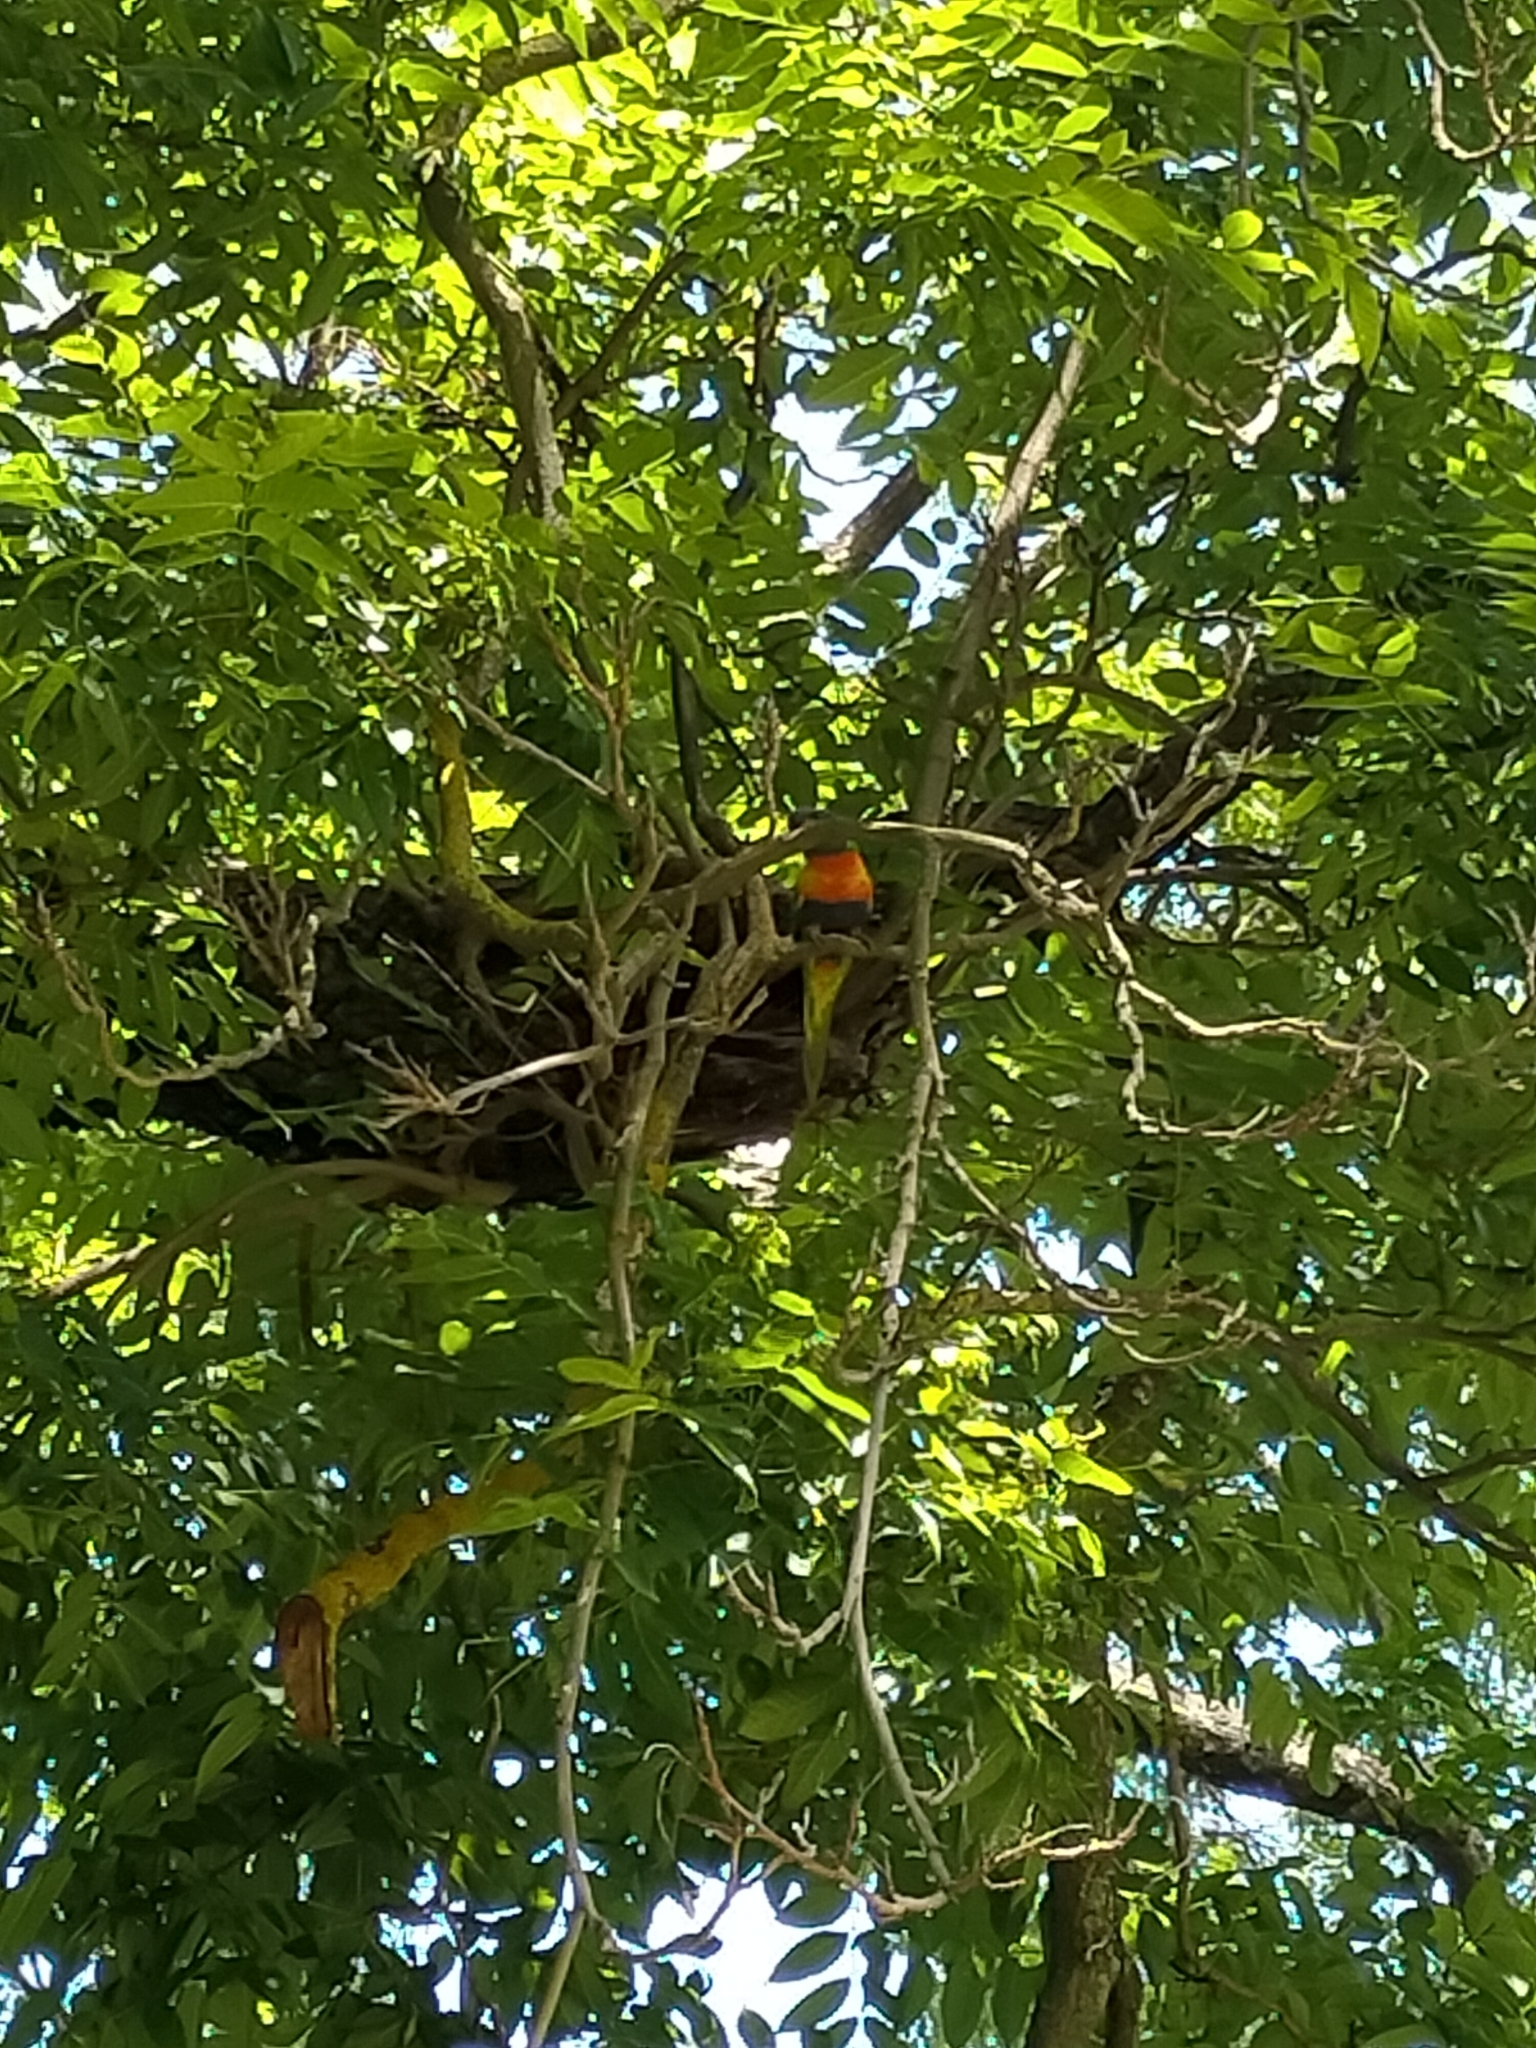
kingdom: Animalia
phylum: Chordata
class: Aves
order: Psittaciformes
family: Psittacidae
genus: Trichoglossus
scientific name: Trichoglossus haematodus
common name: Coconut lorikeet
